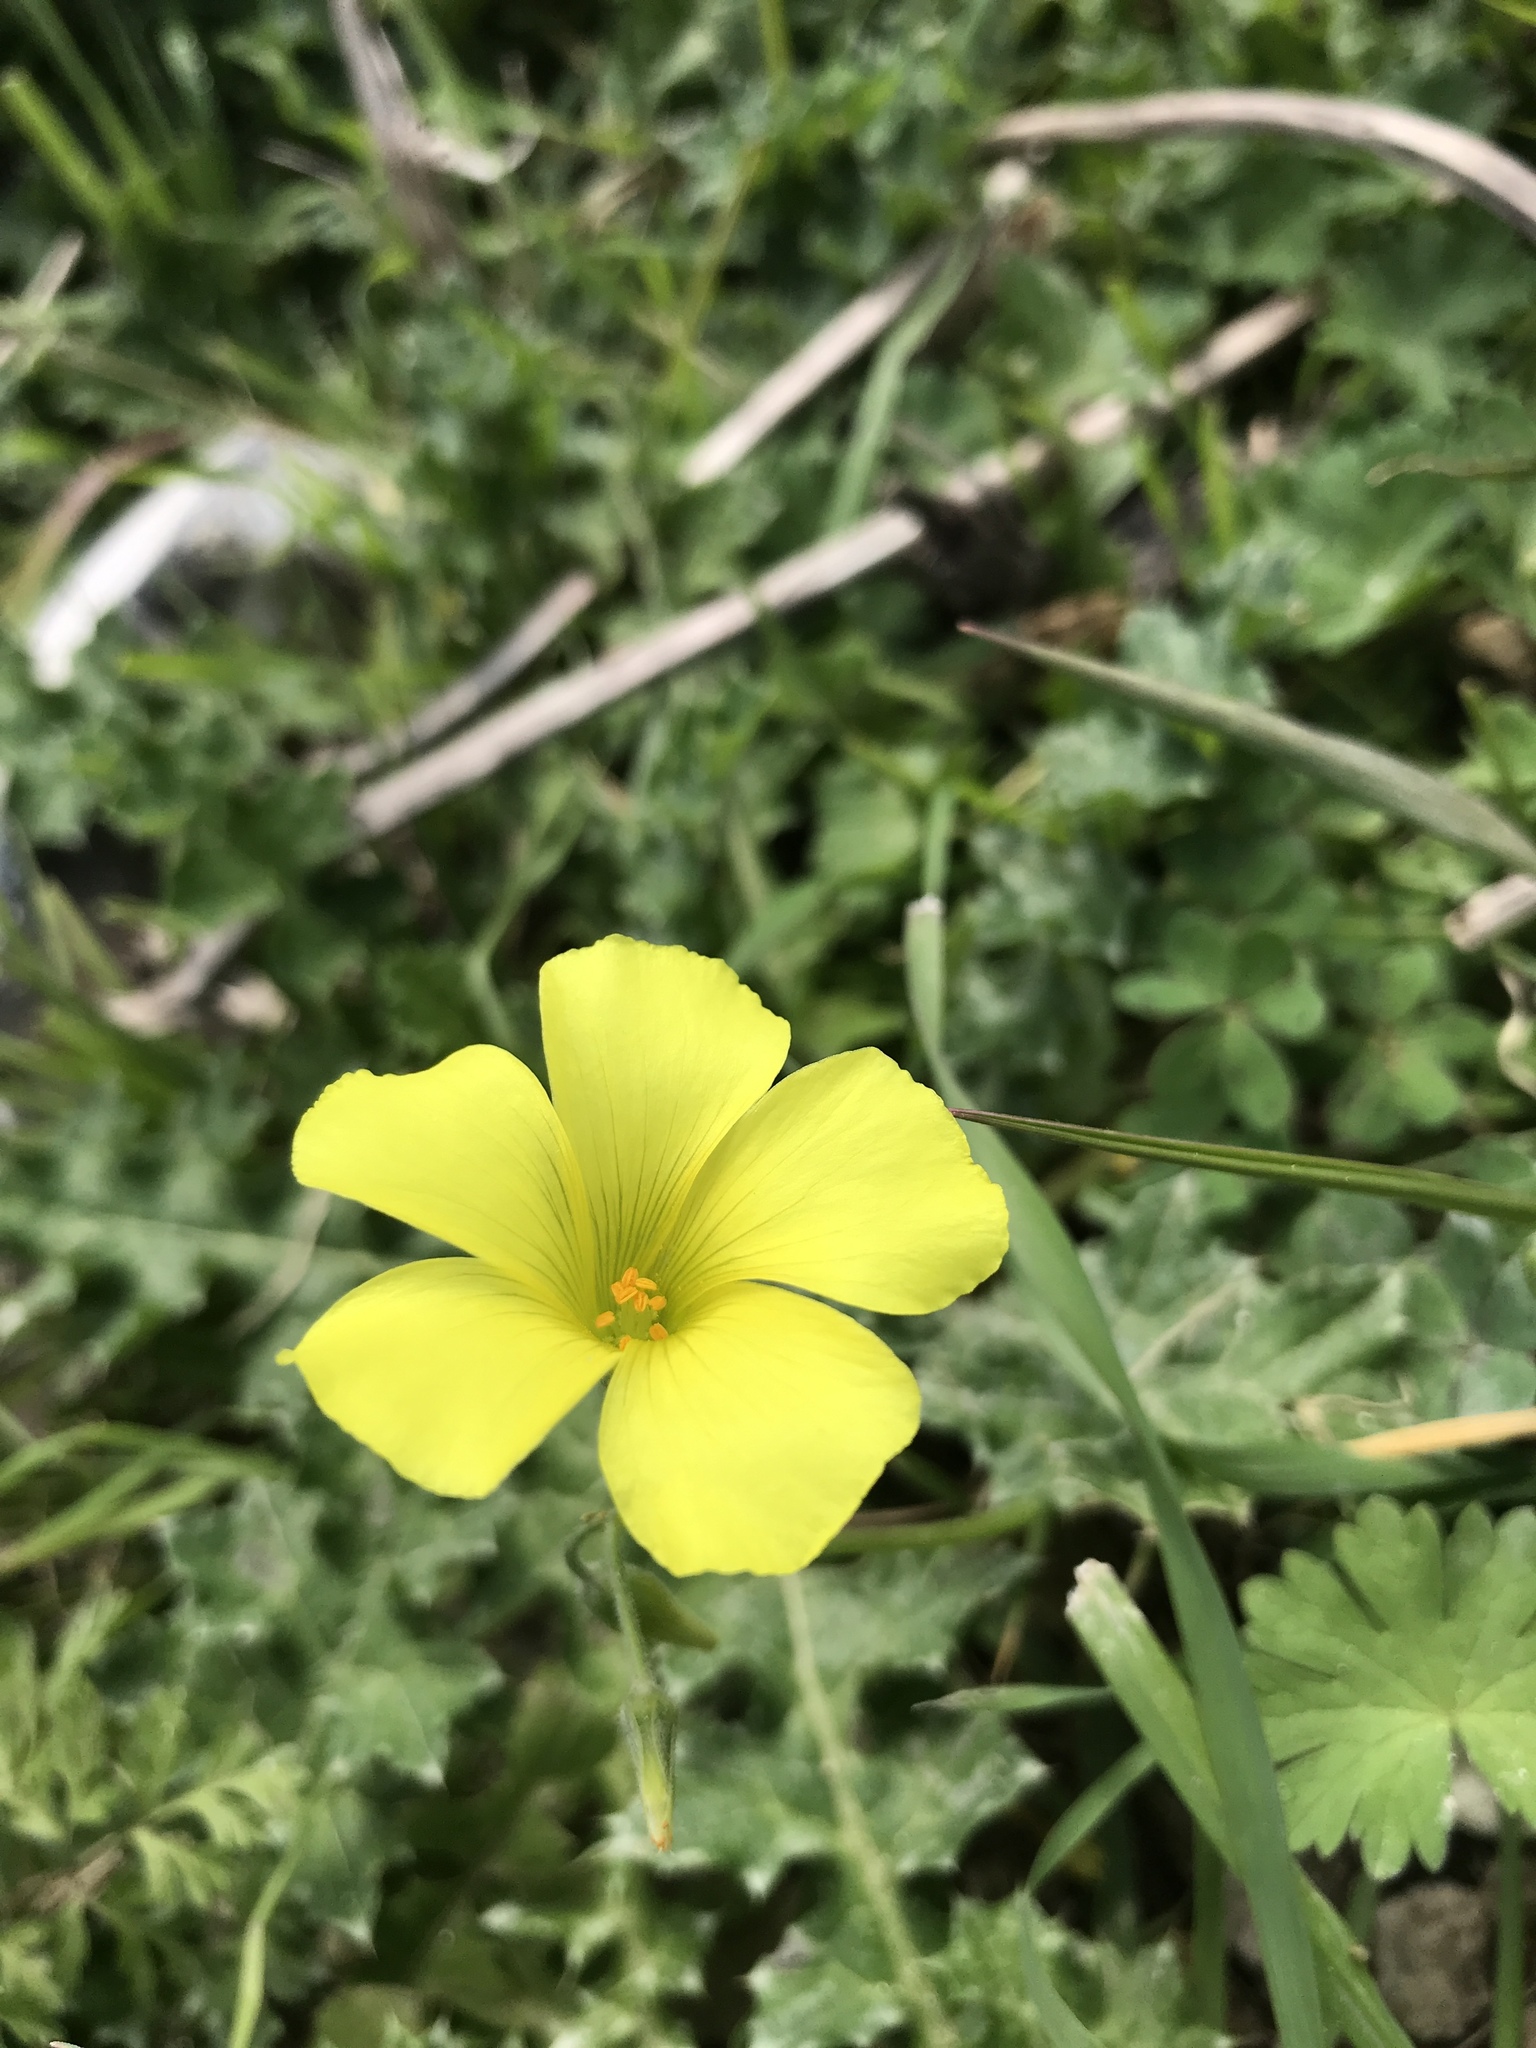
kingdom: Plantae
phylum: Tracheophyta
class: Magnoliopsida
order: Oxalidales
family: Oxalidaceae
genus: Oxalis
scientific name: Oxalis pes-caprae
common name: Bermuda-buttercup
